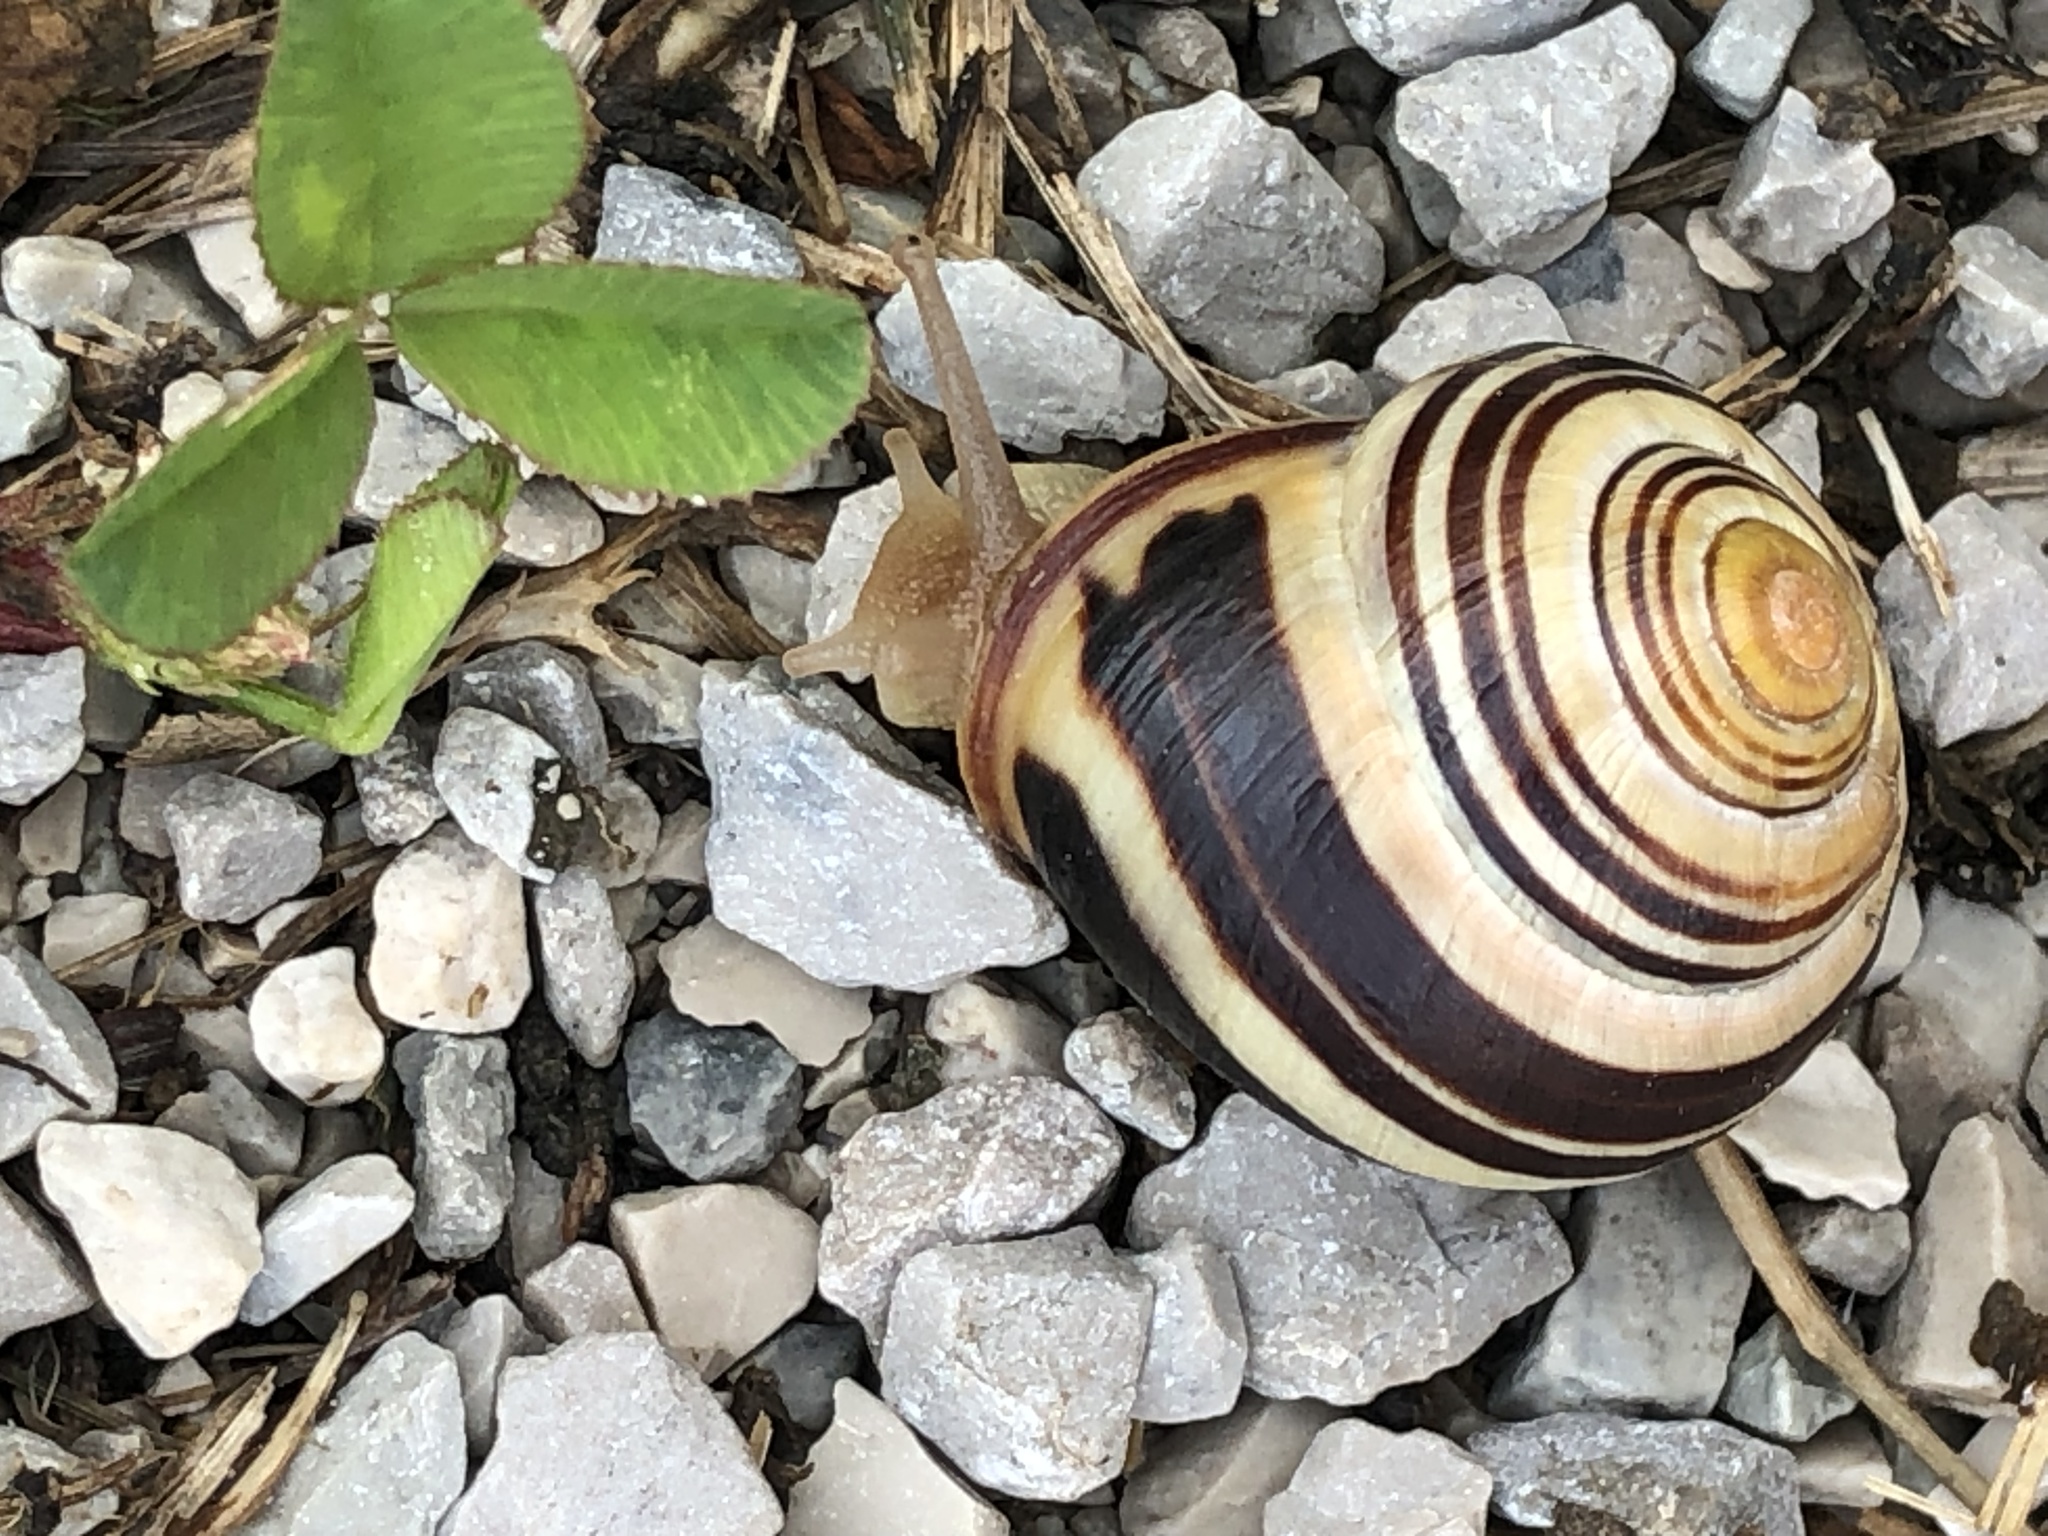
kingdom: Animalia
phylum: Mollusca
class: Gastropoda
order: Stylommatophora
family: Helicidae
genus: Cepaea
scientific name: Cepaea nemoralis
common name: Grovesnail
